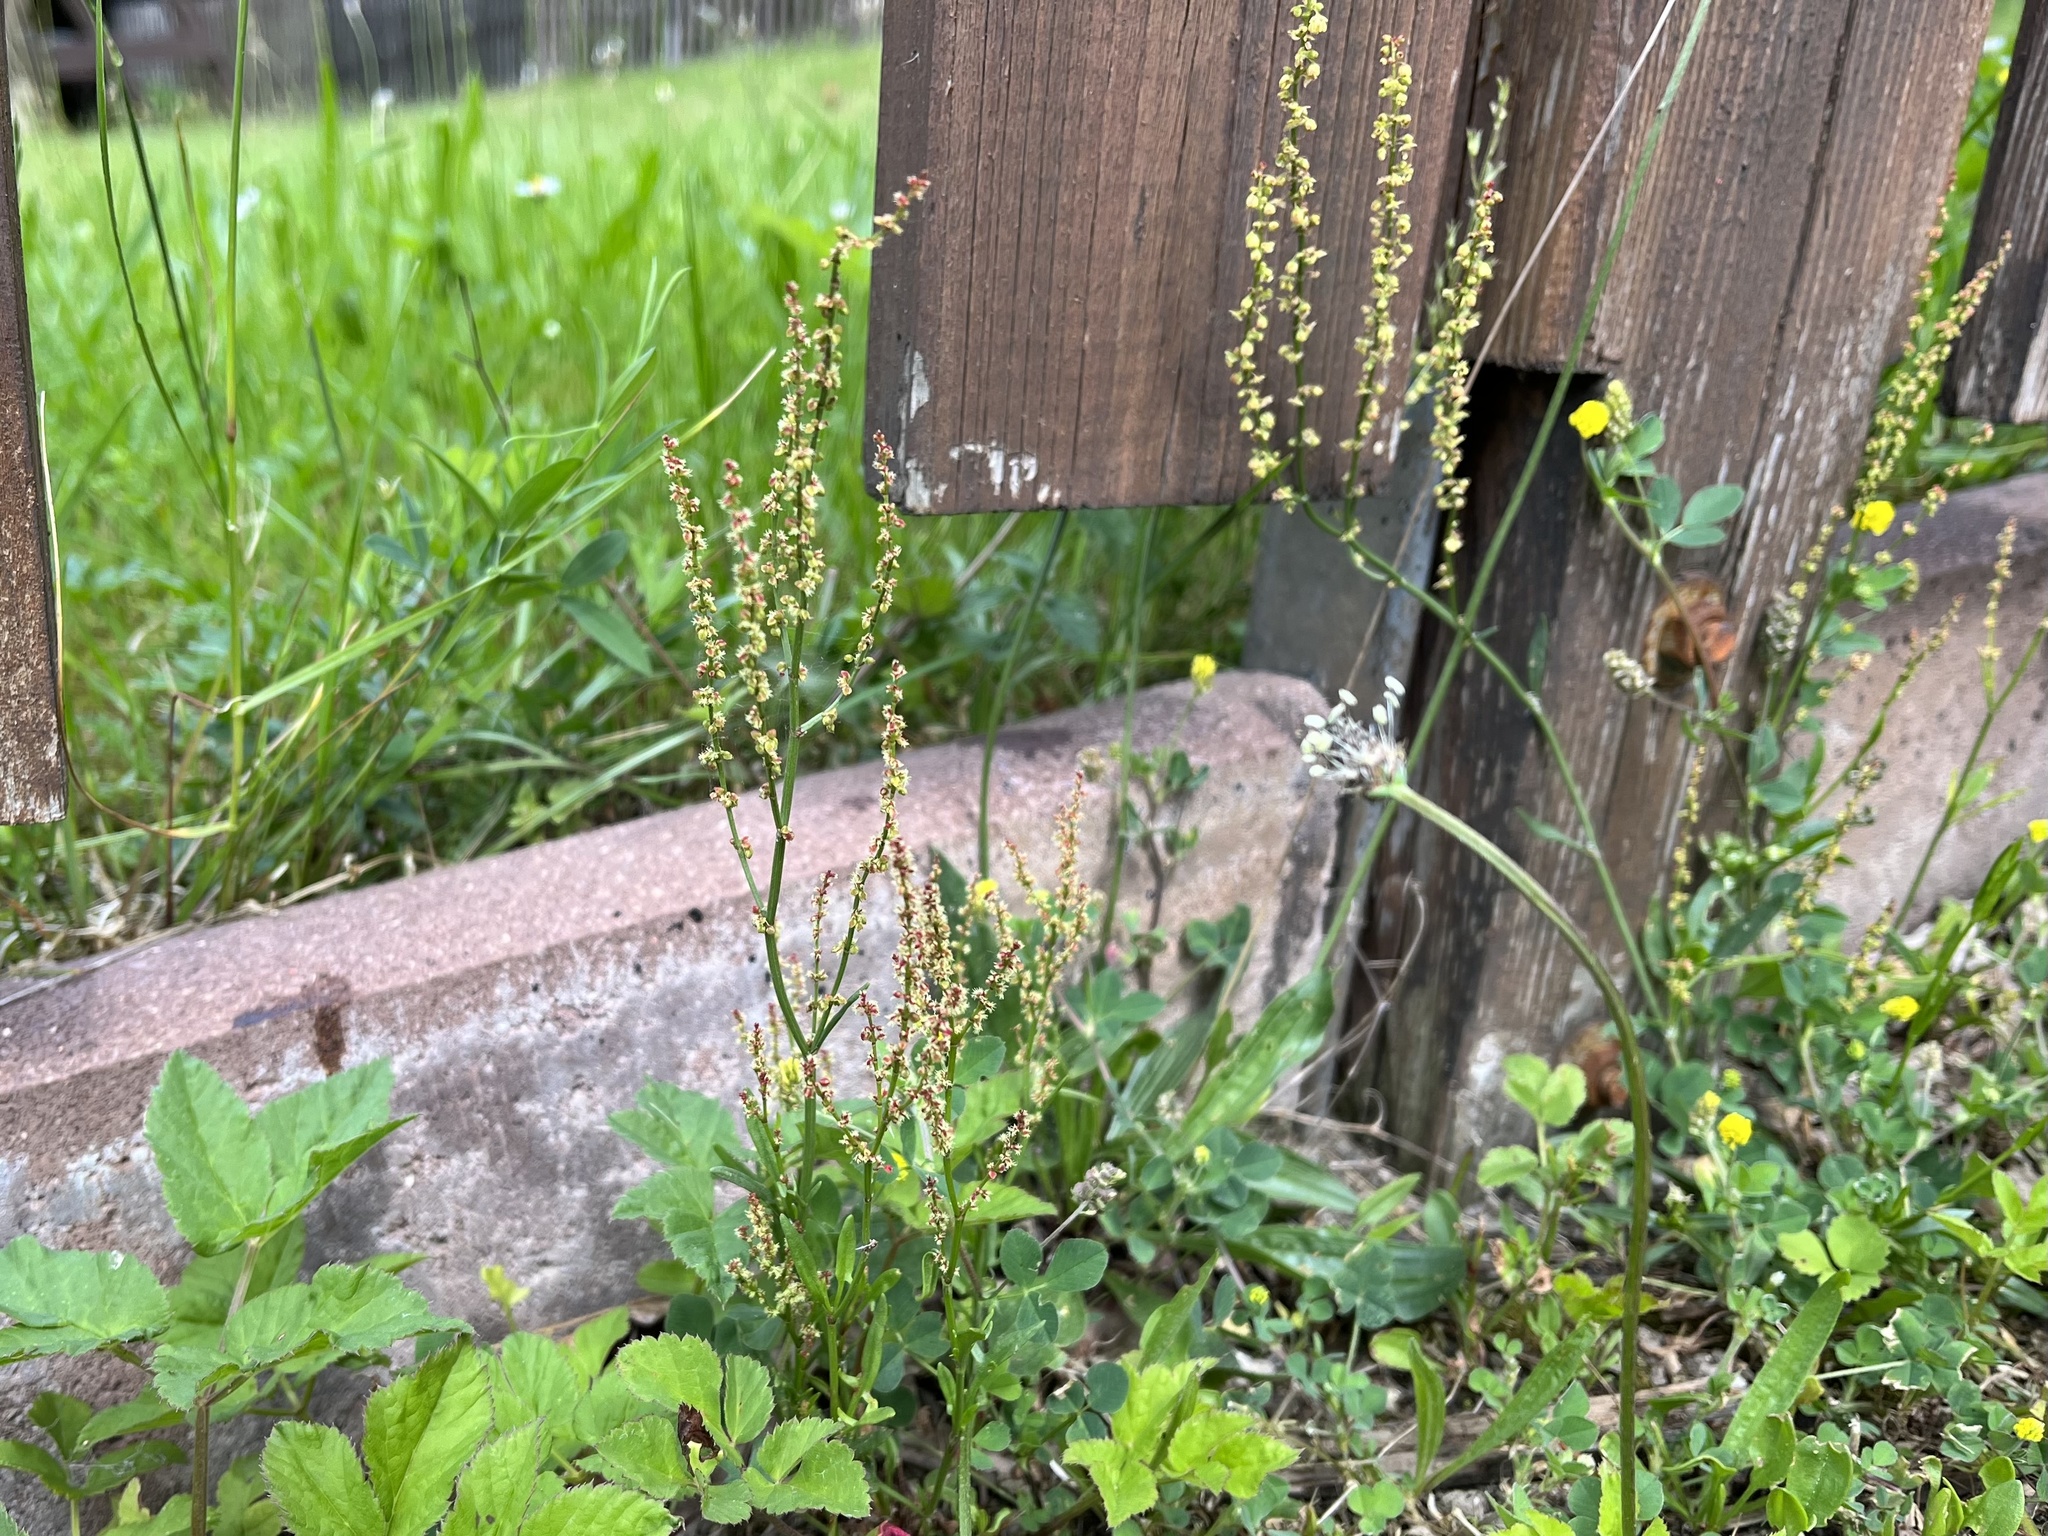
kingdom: Plantae
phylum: Tracheophyta
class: Magnoliopsida
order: Caryophyllales
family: Polygonaceae
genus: Rumex
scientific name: Rumex acetosella
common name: Common sheep sorrel
